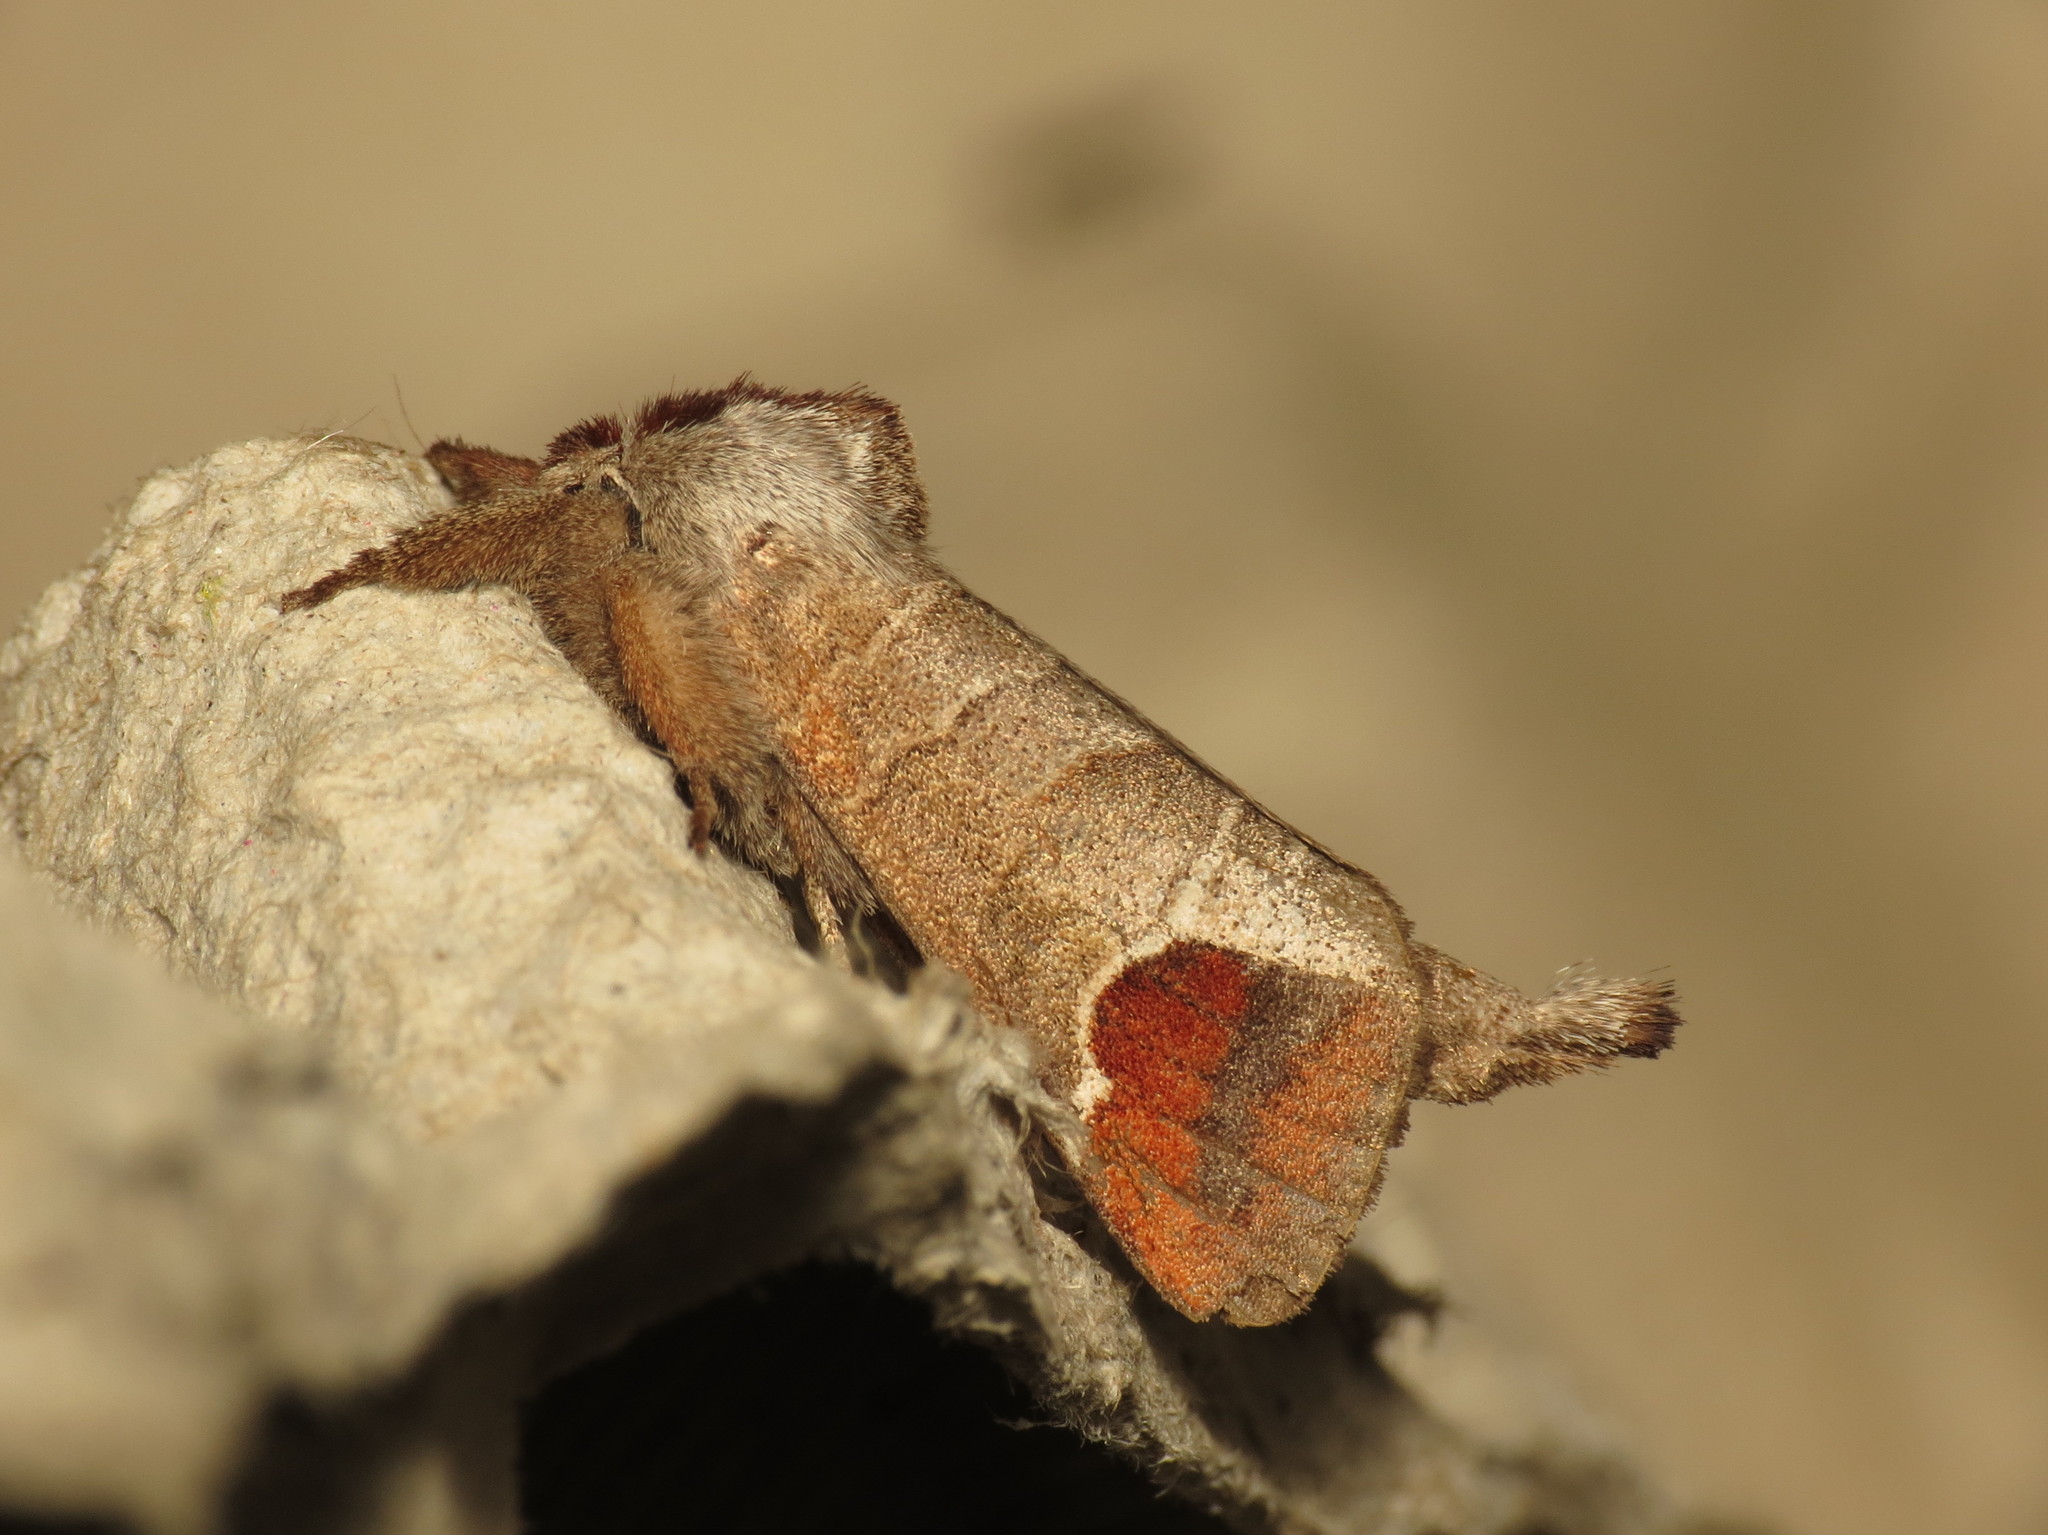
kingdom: Animalia
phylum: Arthropoda
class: Insecta
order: Lepidoptera
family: Notodontidae
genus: Clostera
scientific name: Clostera curtula
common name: Chocolate-tip
